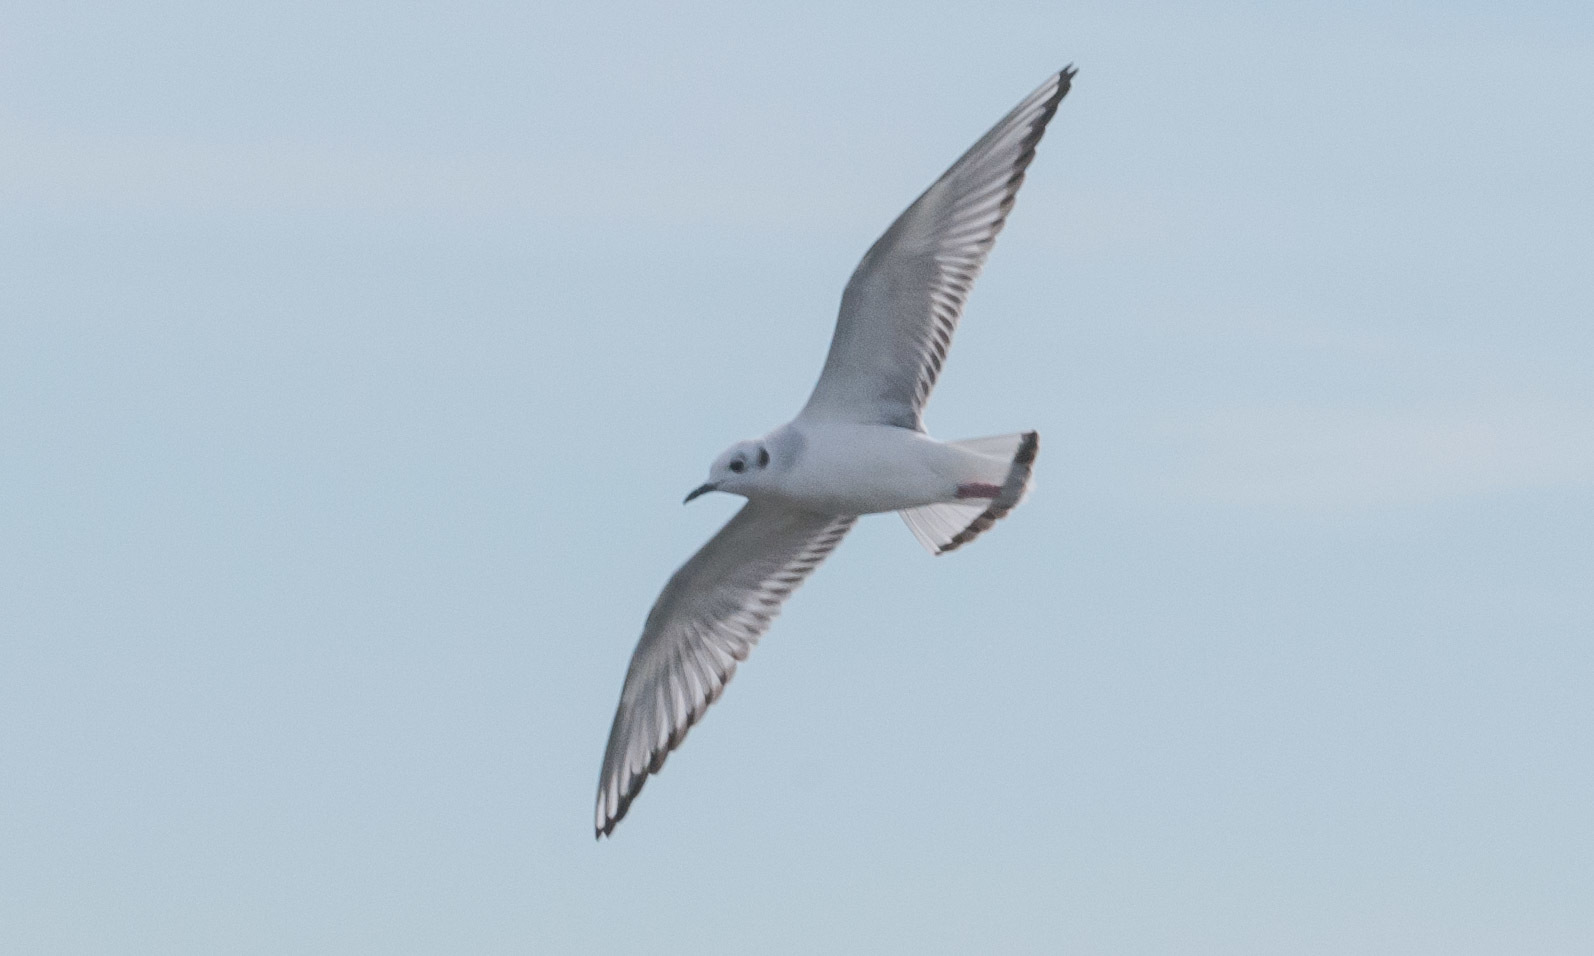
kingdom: Animalia
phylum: Chordata
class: Aves
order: Charadriiformes
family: Laridae
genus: Chroicocephalus
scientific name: Chroicocephalus philadelphia
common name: Bonaparte's gull
